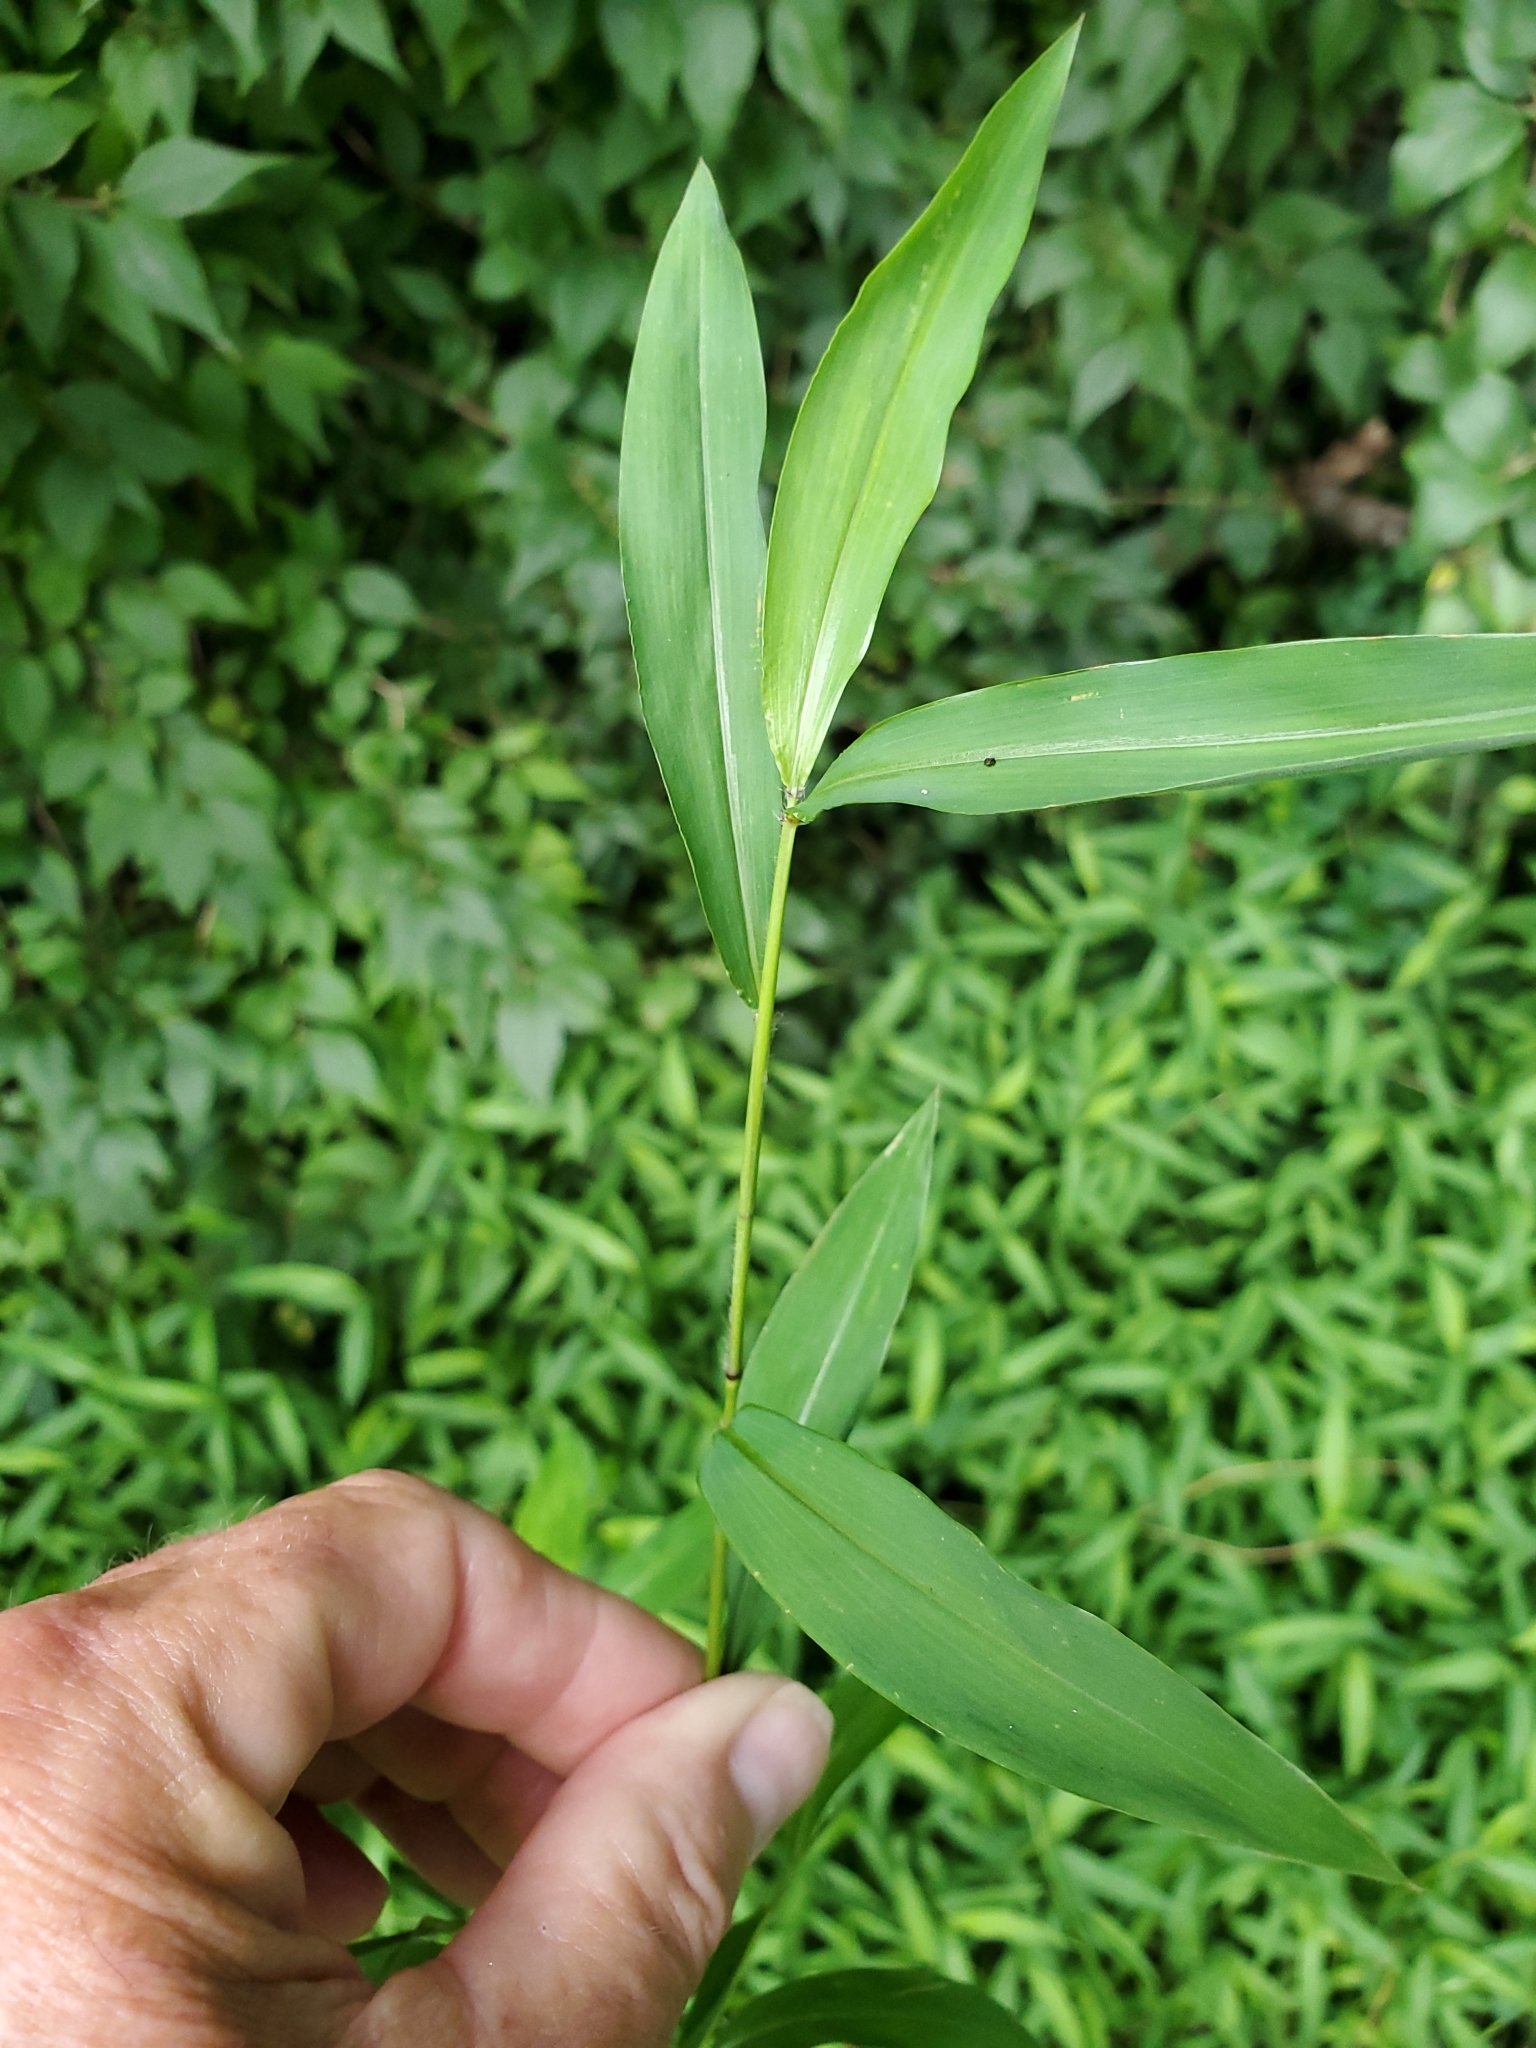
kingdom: Plantae
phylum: Tracheophyta
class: Liliopsida
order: Poales
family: Poaceae
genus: Microstegium
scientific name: Microstegium vimineum
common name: Japanese stiltgrass
